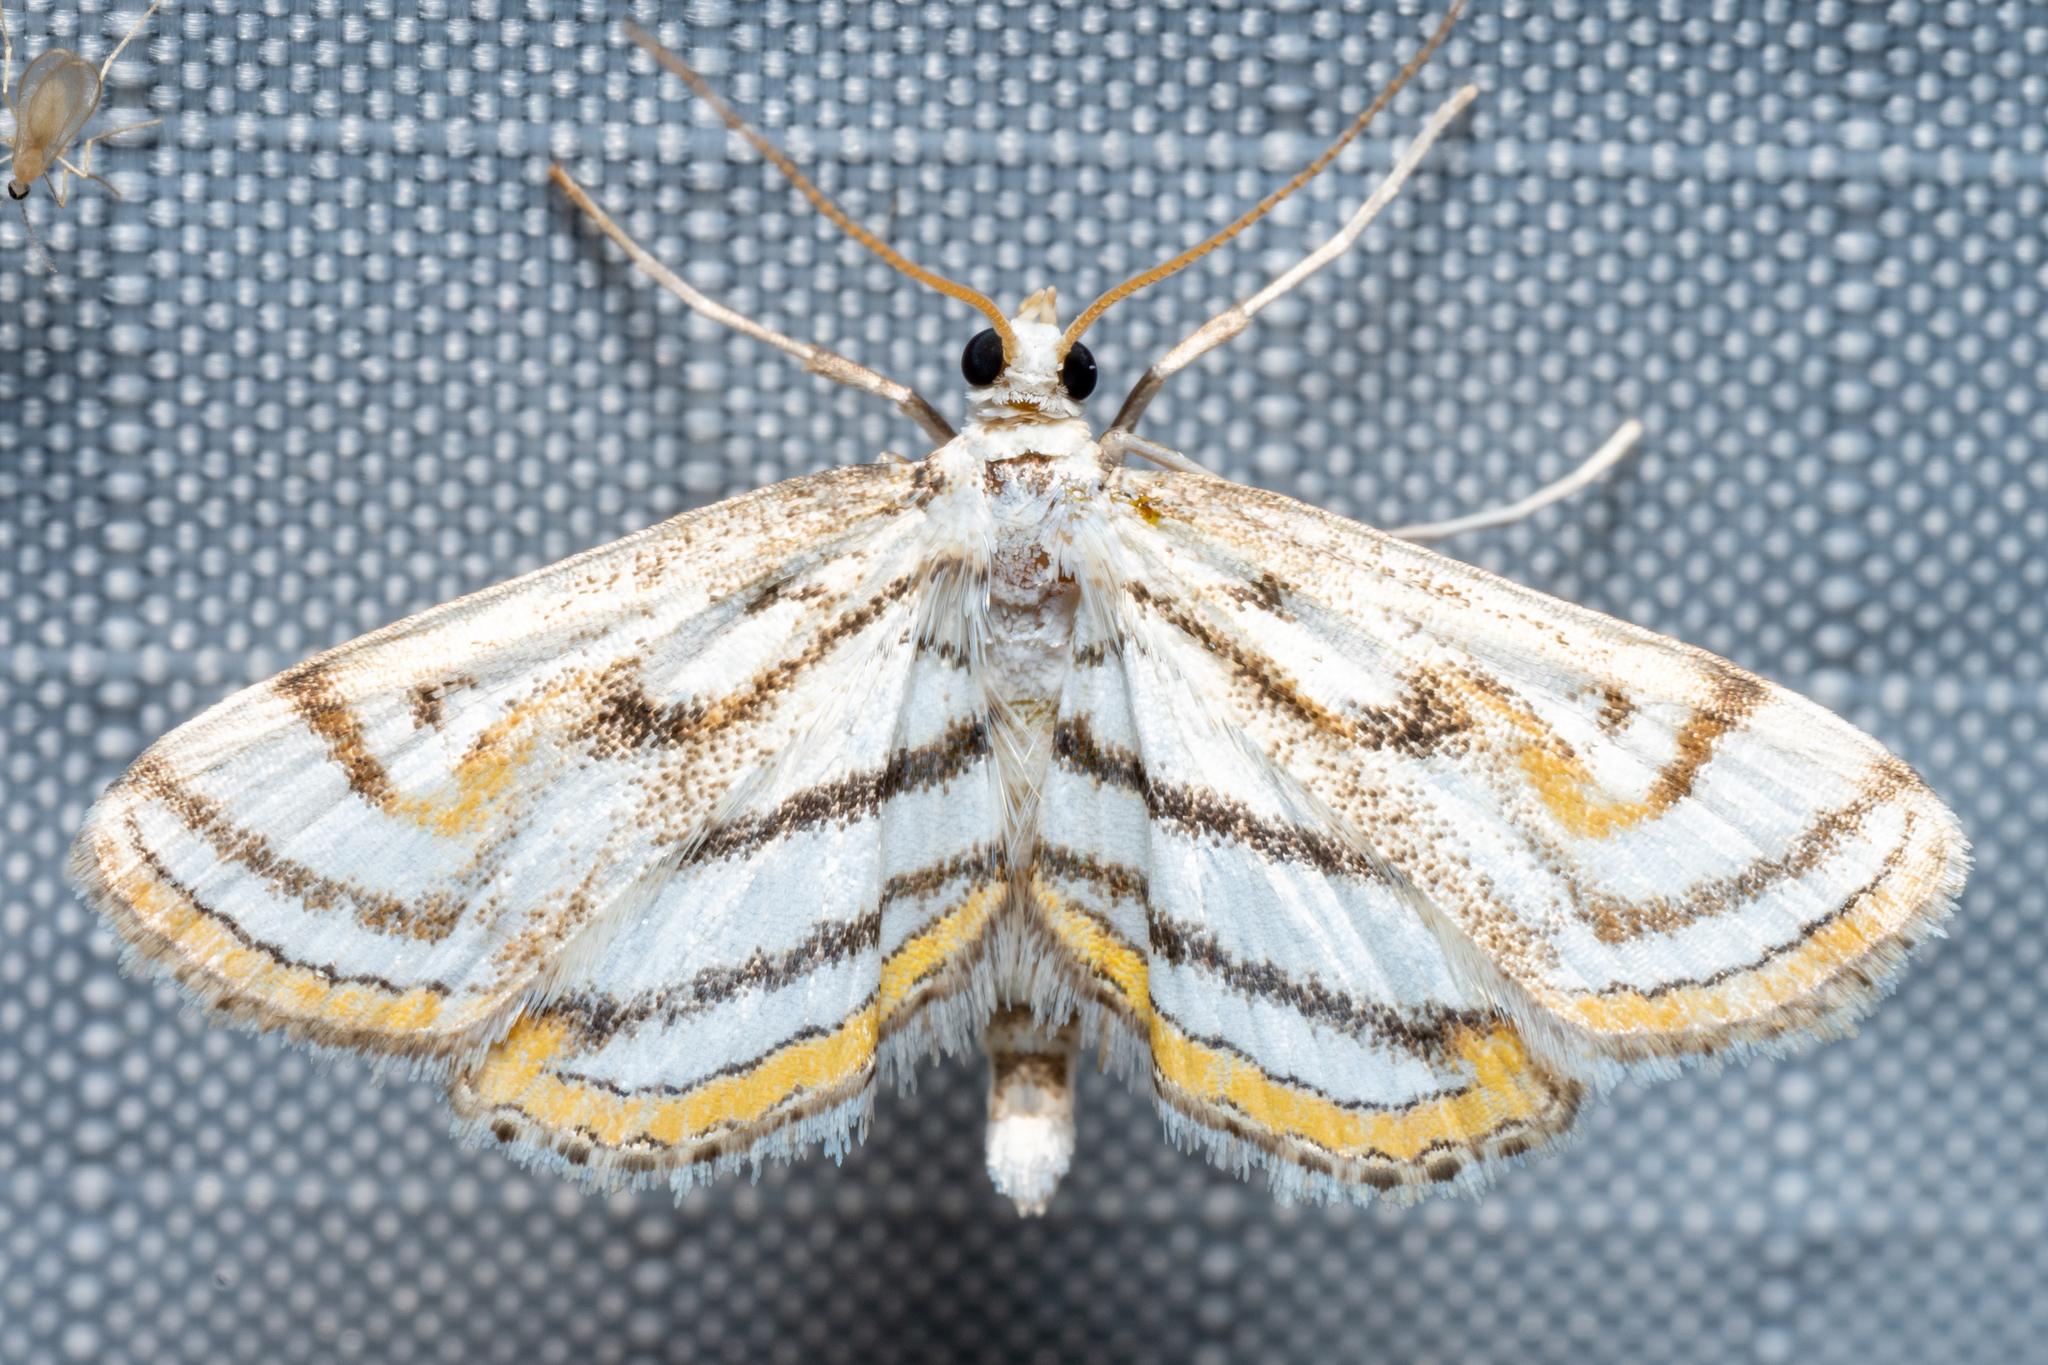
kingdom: Animalia
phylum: Arthropoda
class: Insecta
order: Lepidoptera
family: Crambidae
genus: Parapoynx
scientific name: Parapoynx badiusalis
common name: Chestnut-marked pondweed moth
